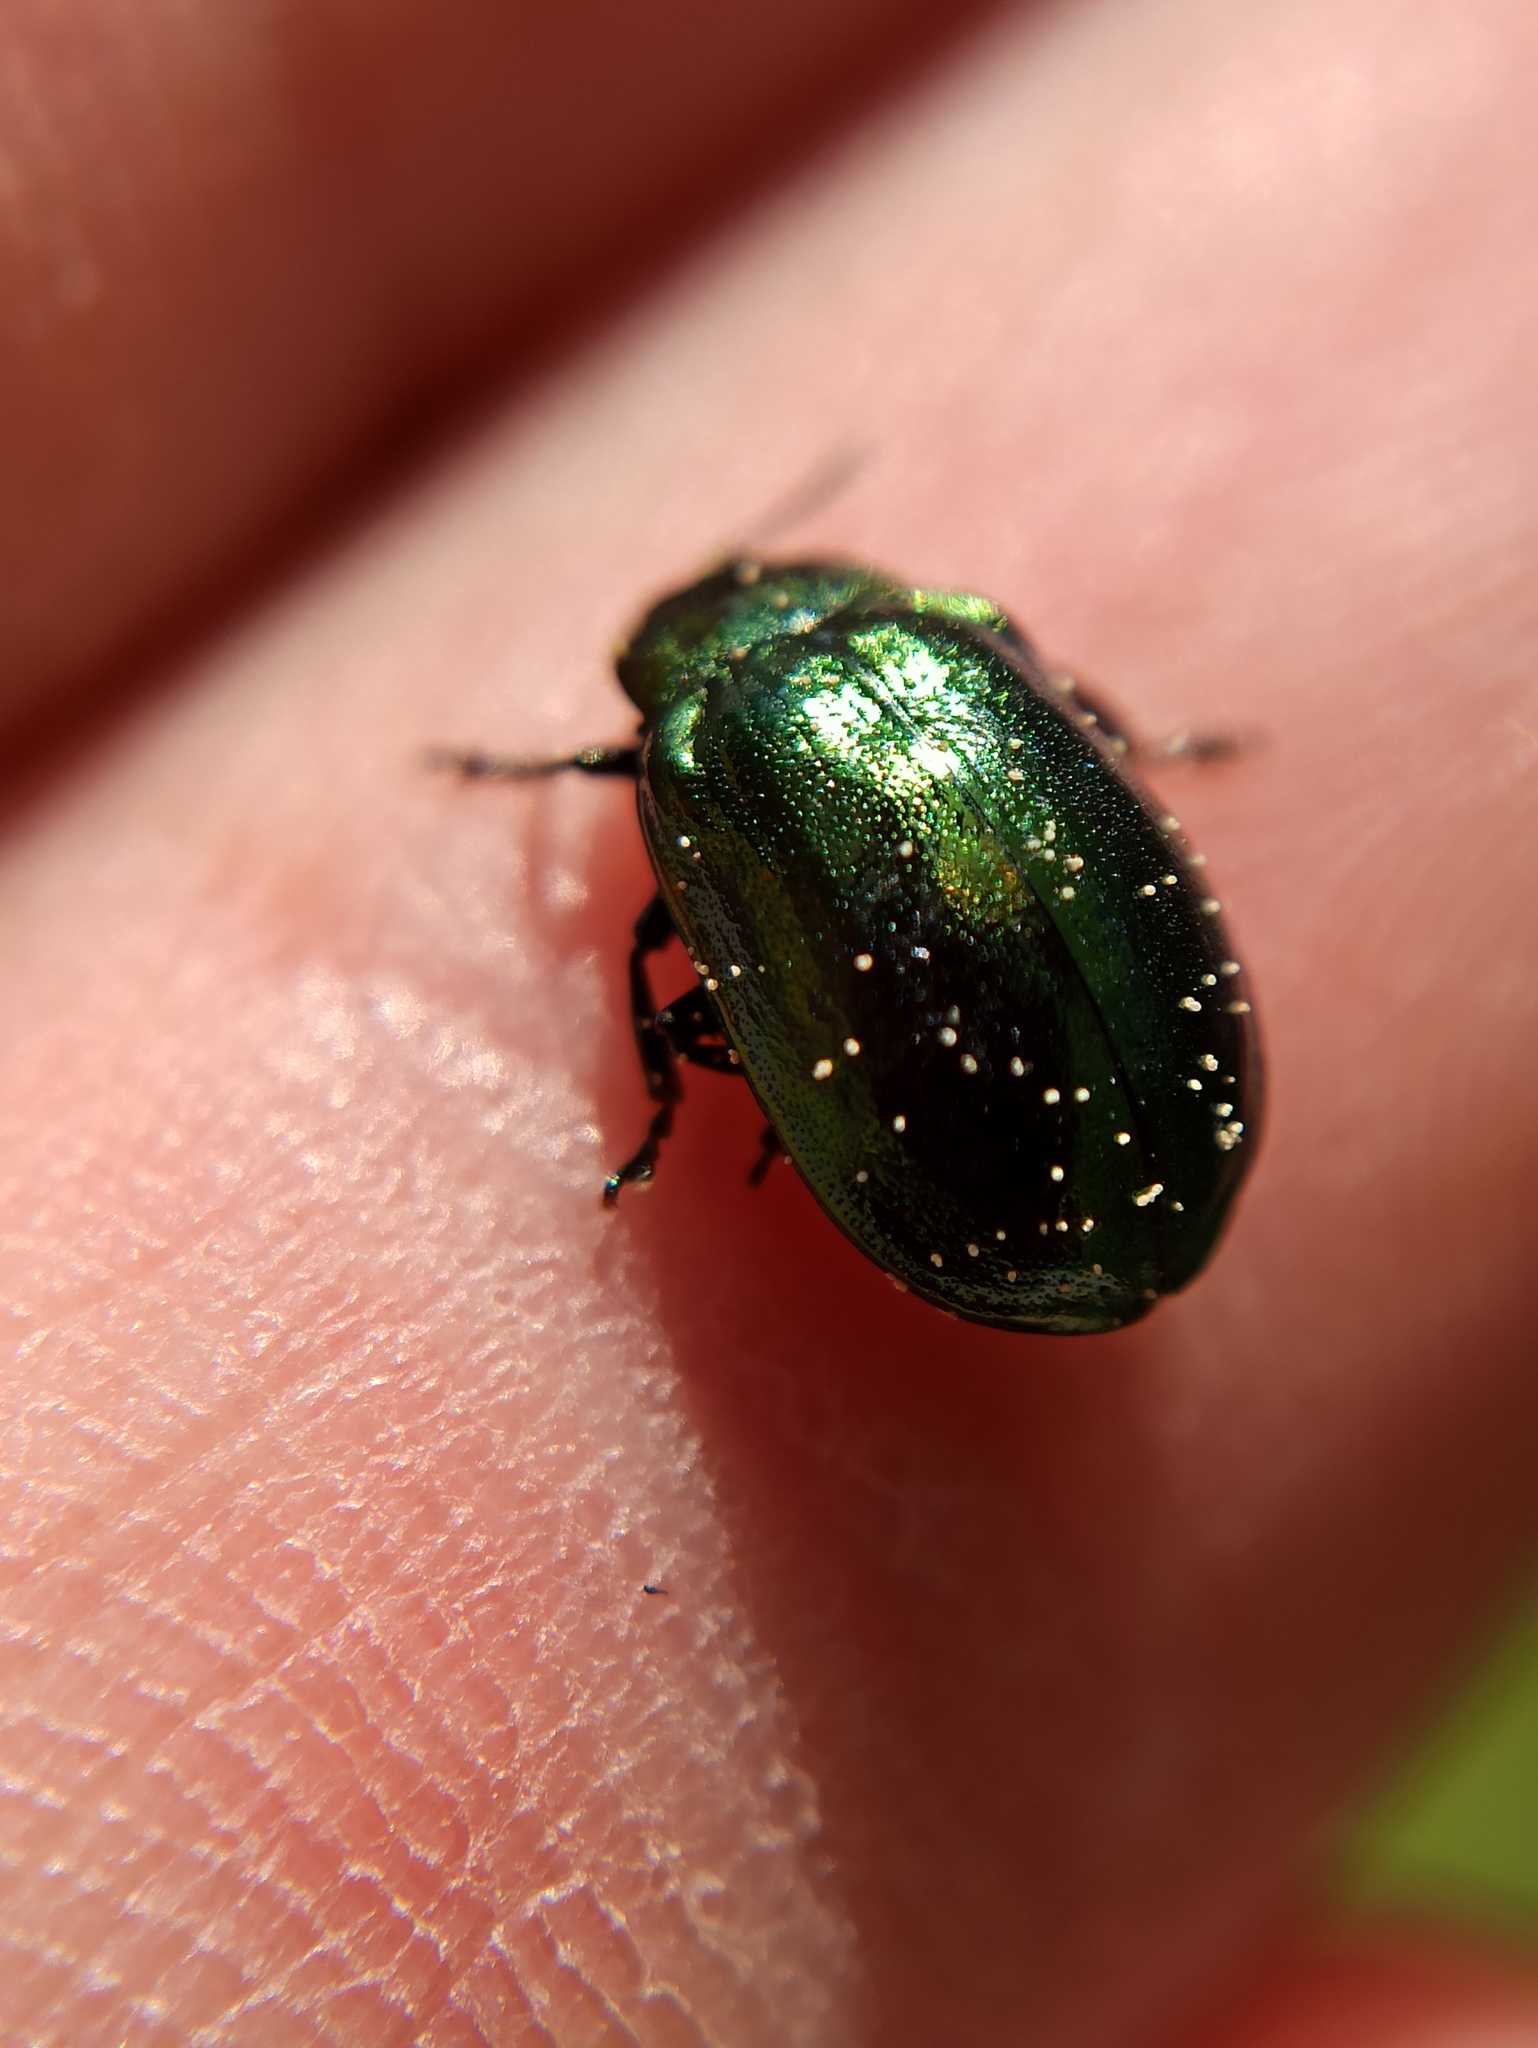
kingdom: Animalia
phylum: Arthropoda
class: Insecta
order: Coleoptera
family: Chrysomelidae
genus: Plagiosterna
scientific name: Plagiosterna aenea
